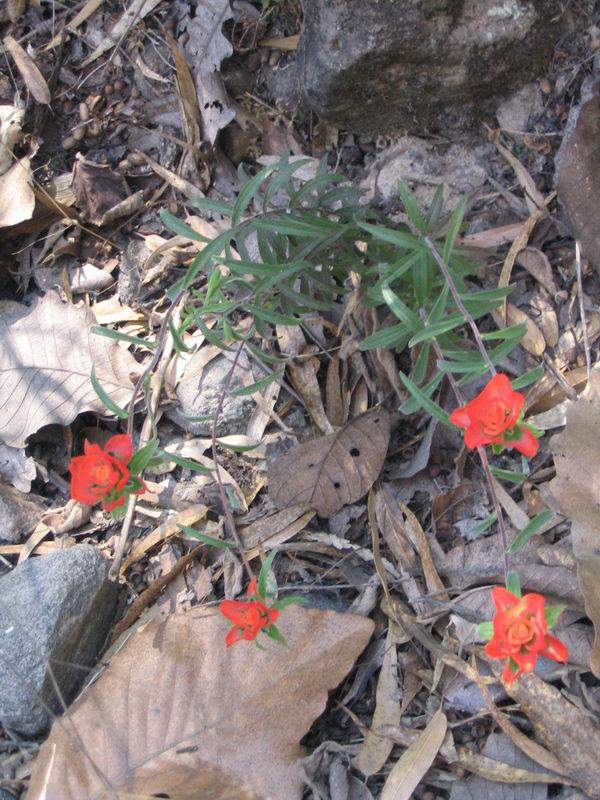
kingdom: Plantae
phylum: Tracheophyta
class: Magnoliopsida
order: Lamiales
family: Orobanchaceae
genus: Castilleja
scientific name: Castilleja nervata
